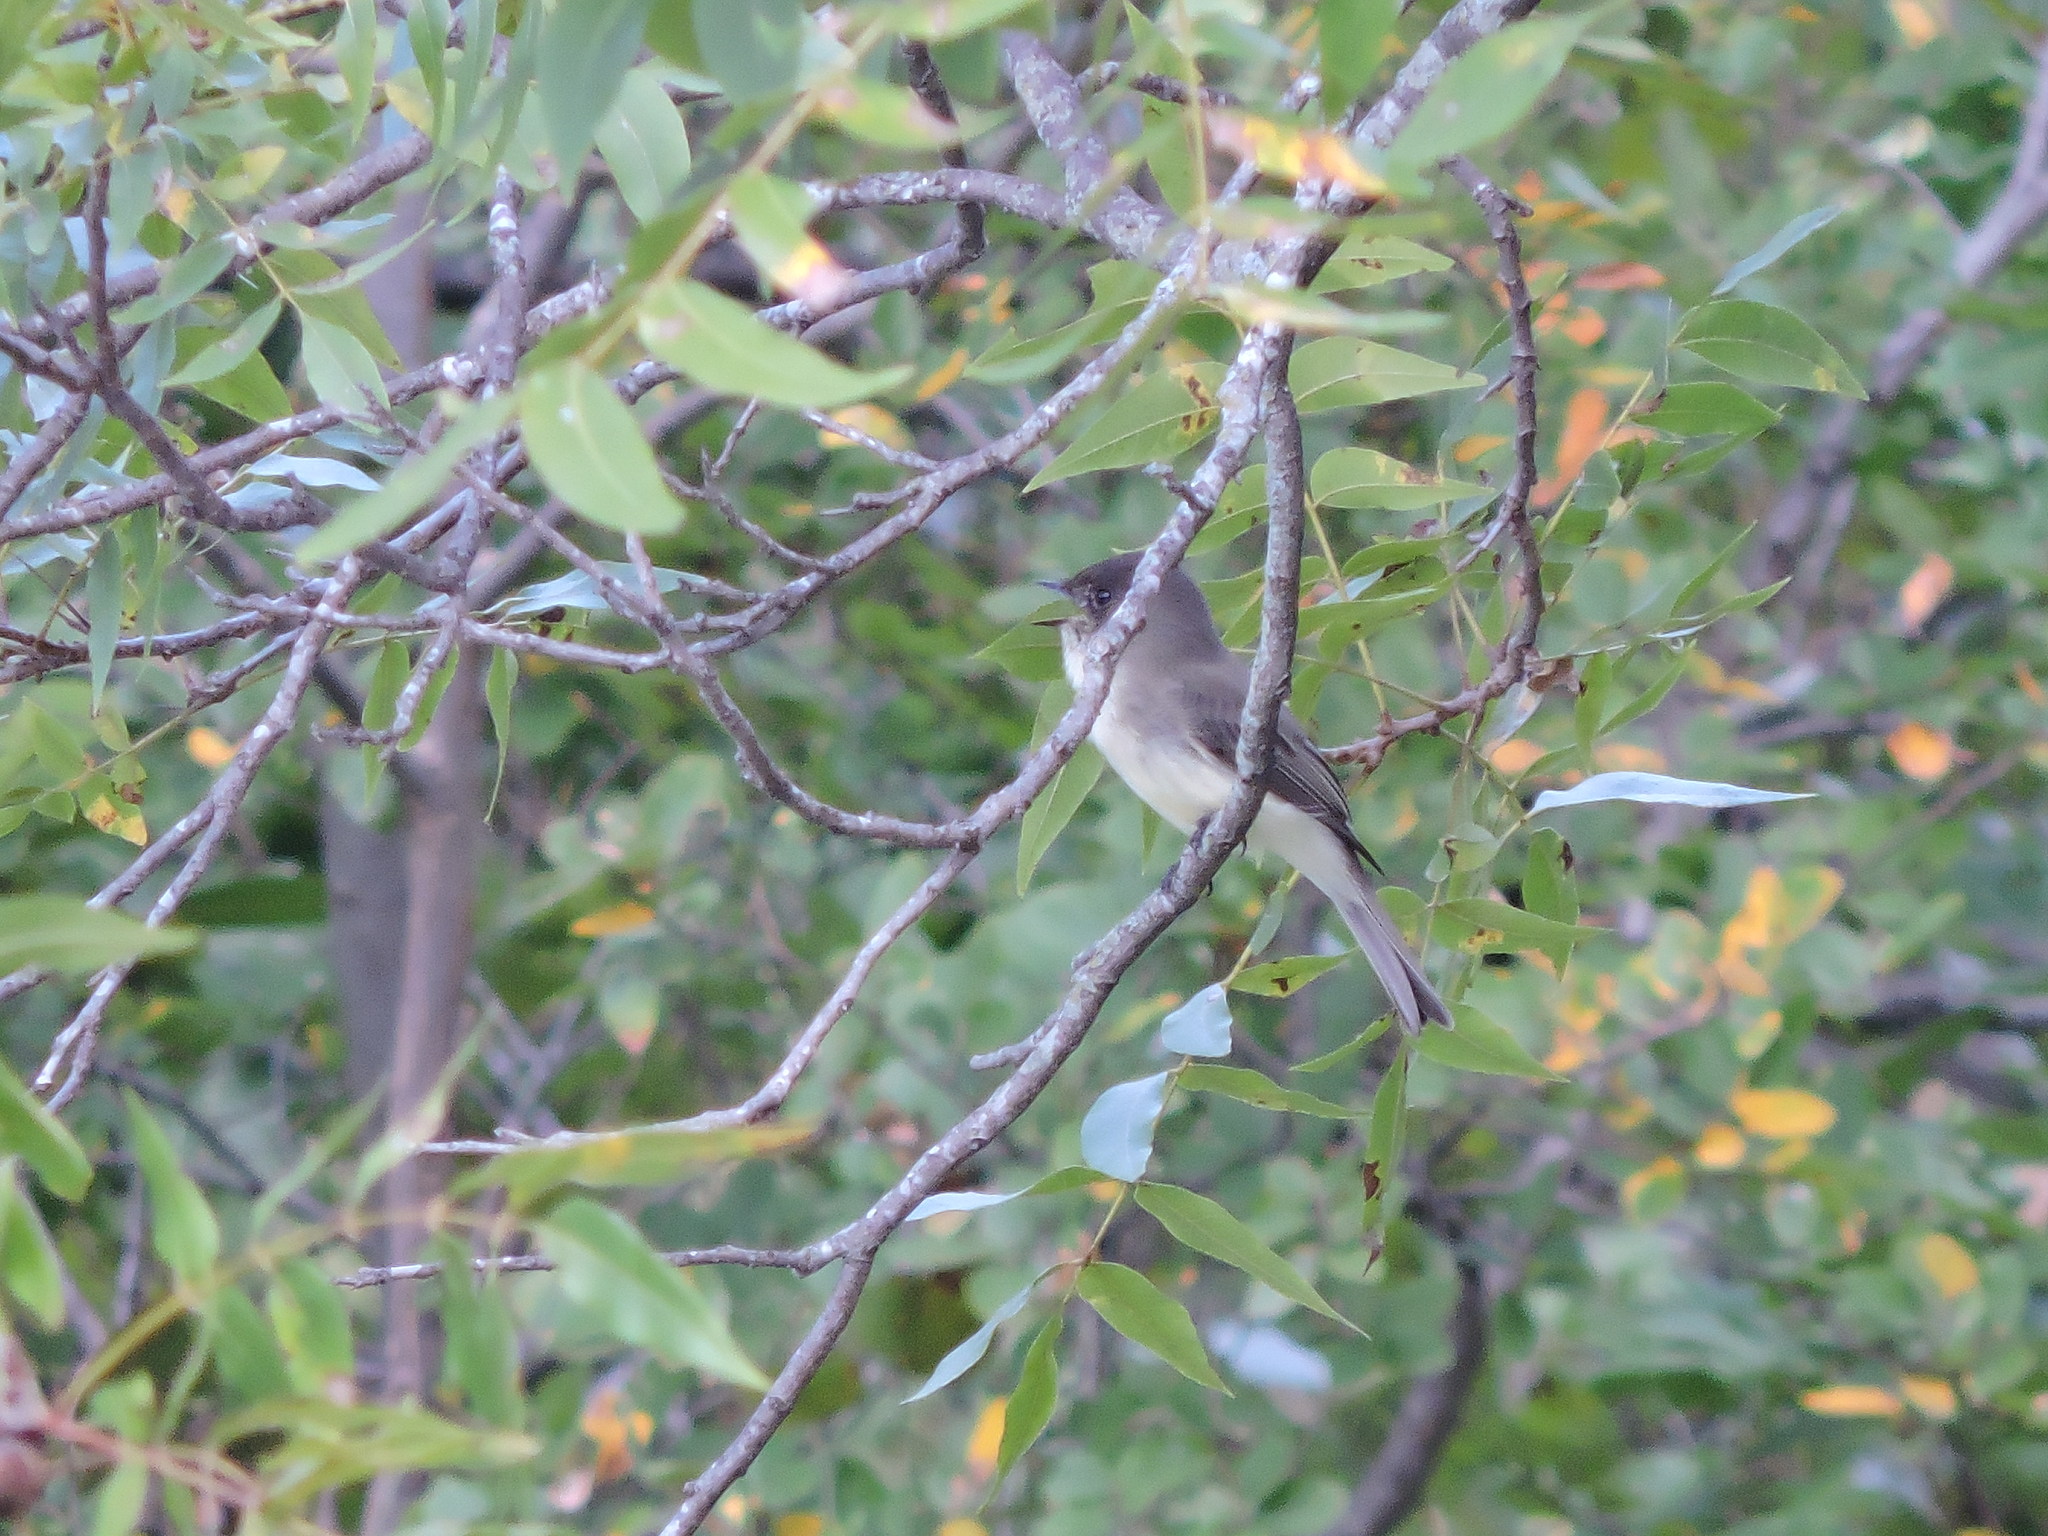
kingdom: Animalia
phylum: Chordata
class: Aves
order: Passeriformes
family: Tyrannidae
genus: Sayornis
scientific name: Sayornis phoebe
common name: Eastern phoebe
